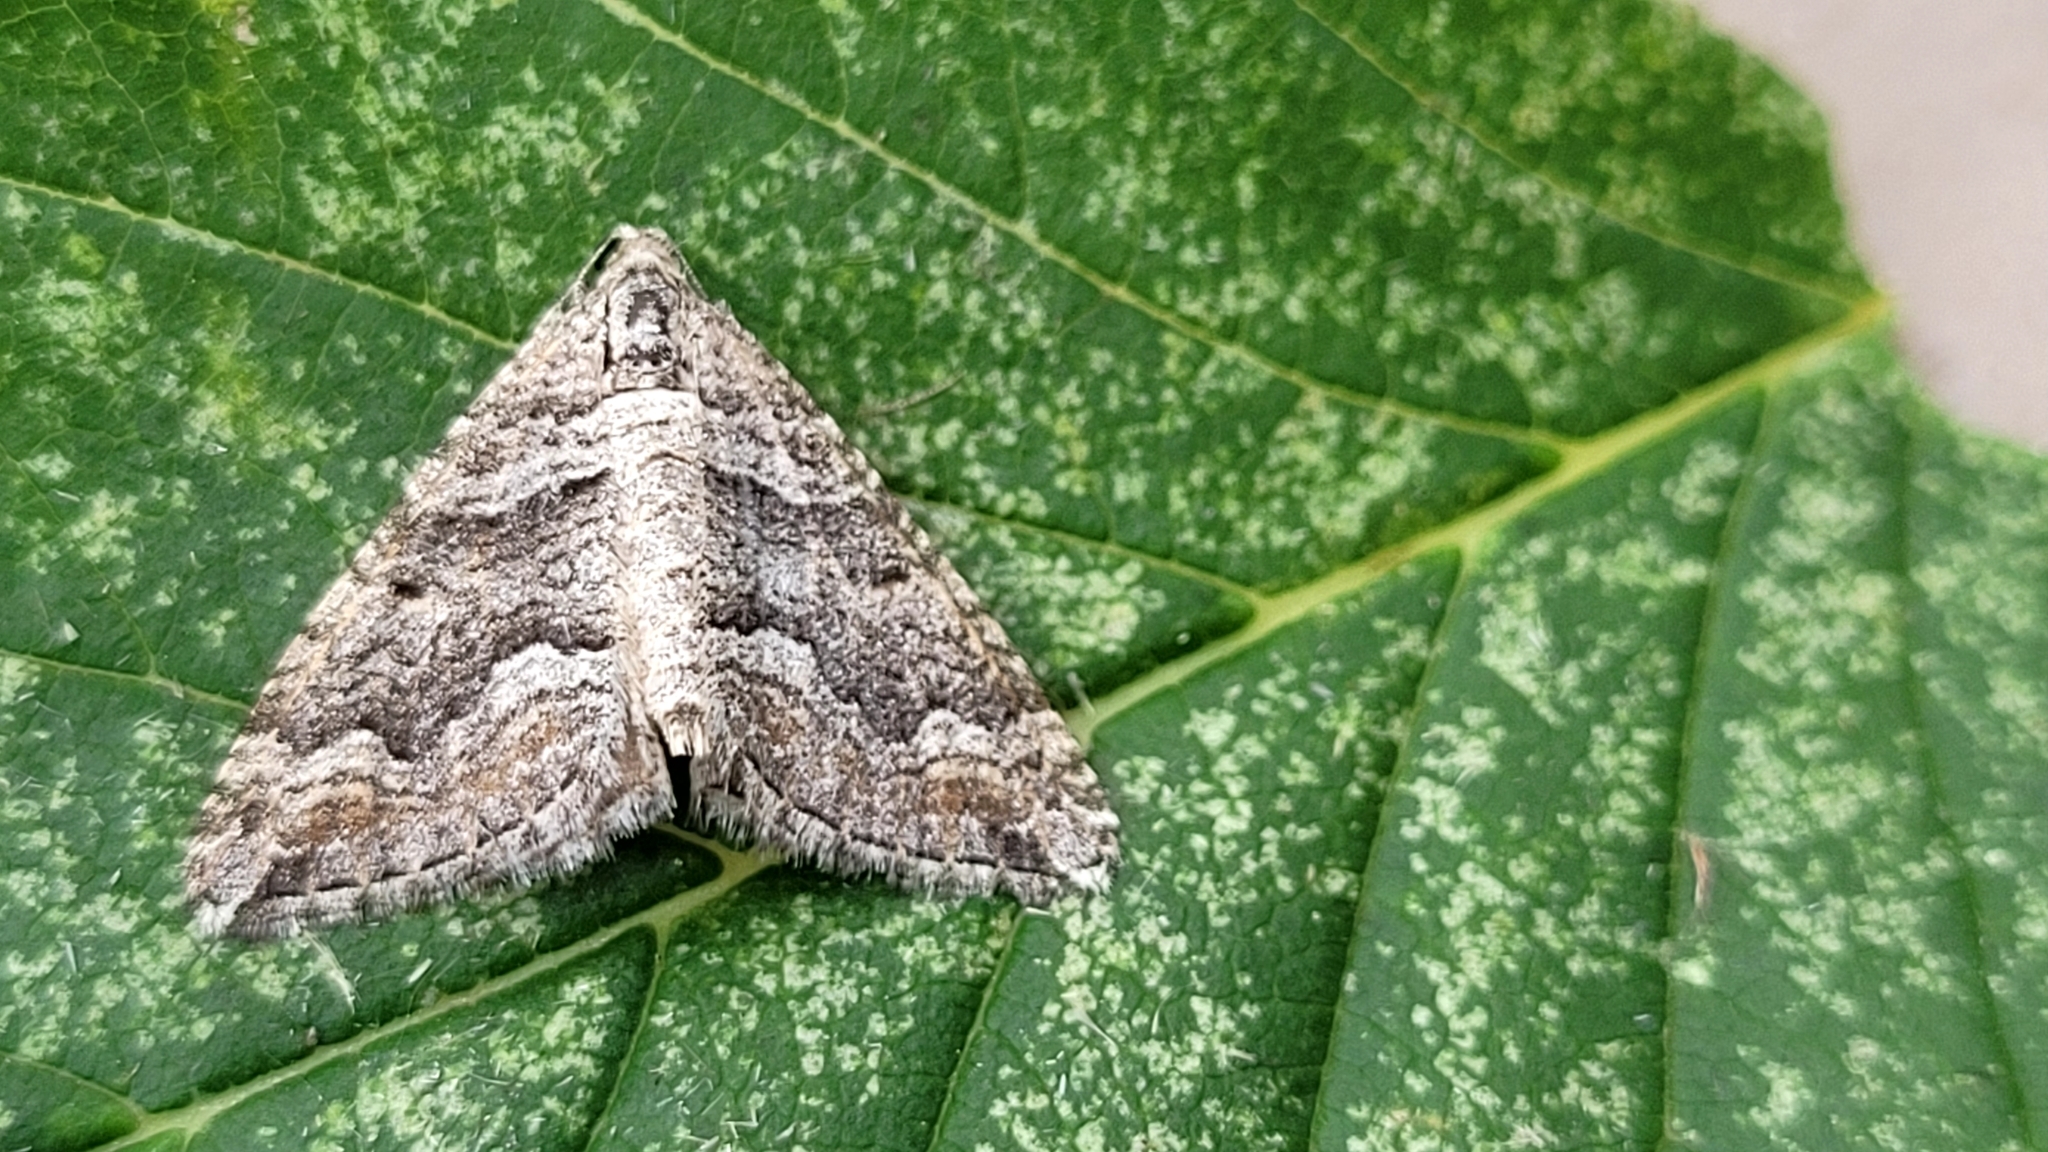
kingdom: Animalia
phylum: Arthropoda
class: Insecta
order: Lepidoptera
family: Geometridae
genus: Perizoma
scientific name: Perizoma custodiata
